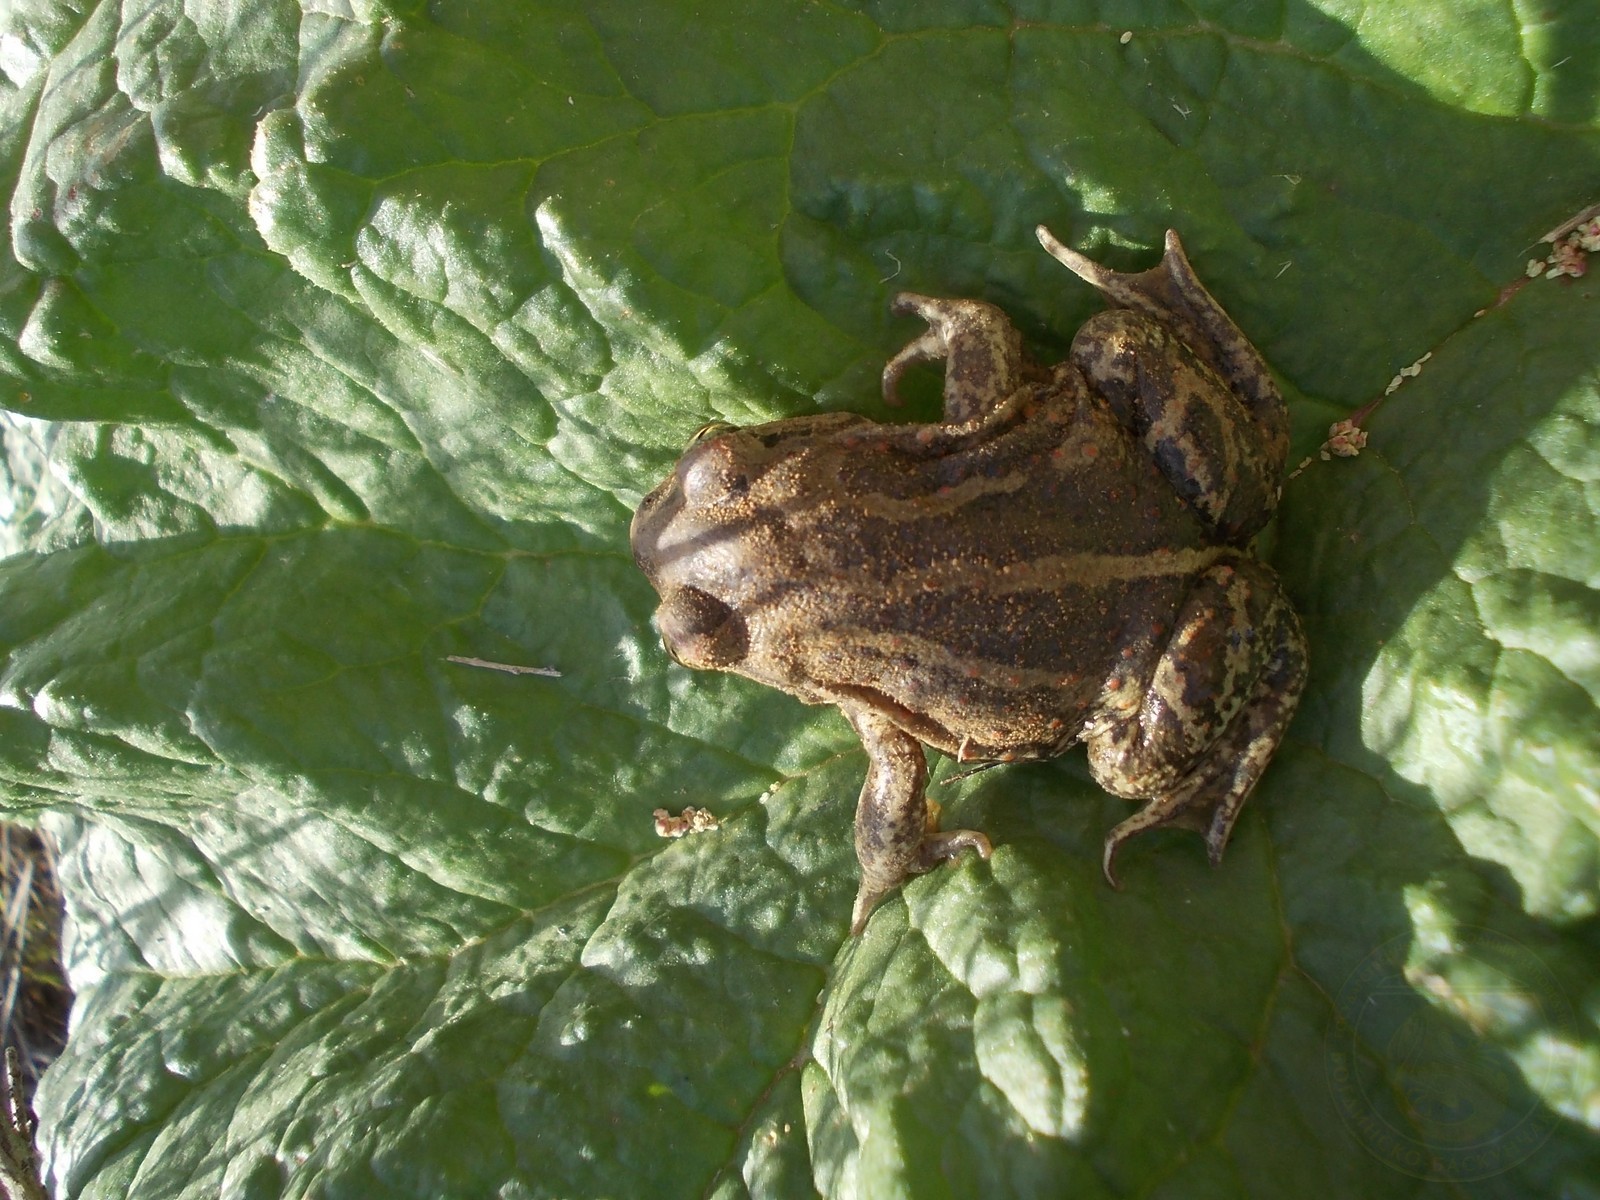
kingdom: Animalia
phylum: Chordata
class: Amphibia
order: Anura
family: Pelobatidae
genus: Pelobates
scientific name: Pelobates vespertinus
